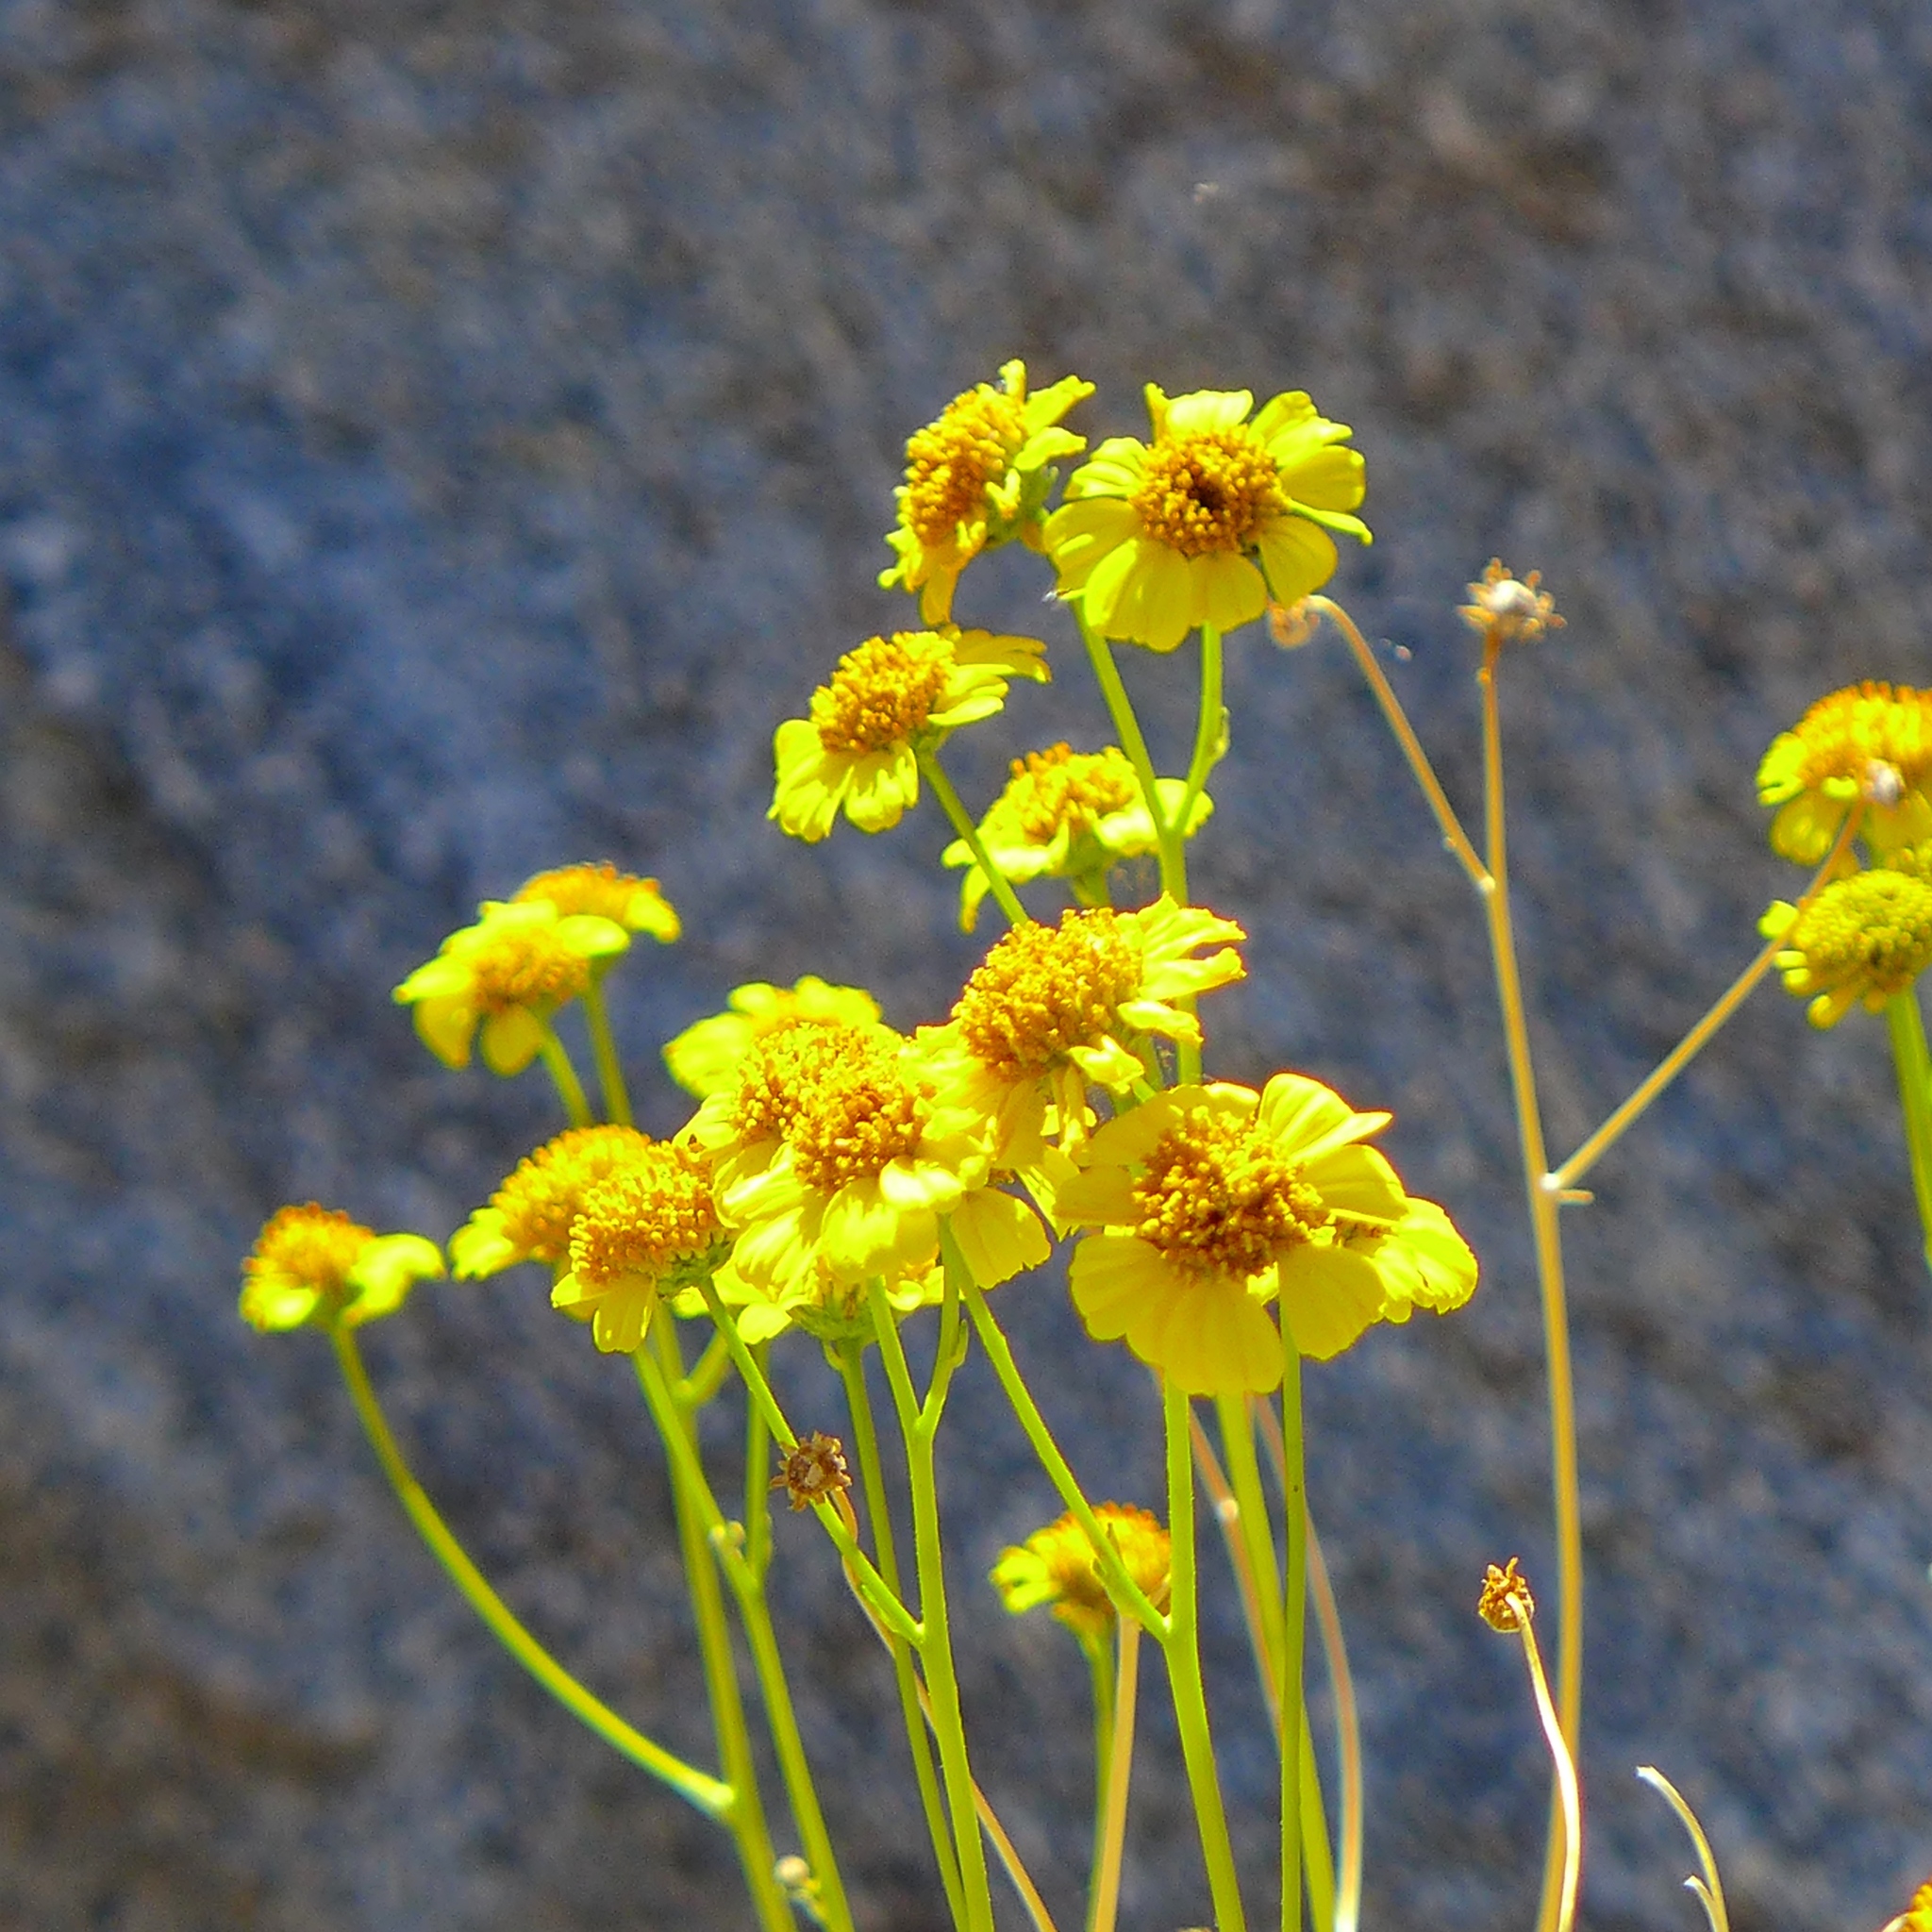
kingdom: Plantae
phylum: Tracheophyta
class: Magnoliopsida
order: Asterales
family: Asteraceae
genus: Encelia
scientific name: Encelia farinosa
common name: Brittlebush
